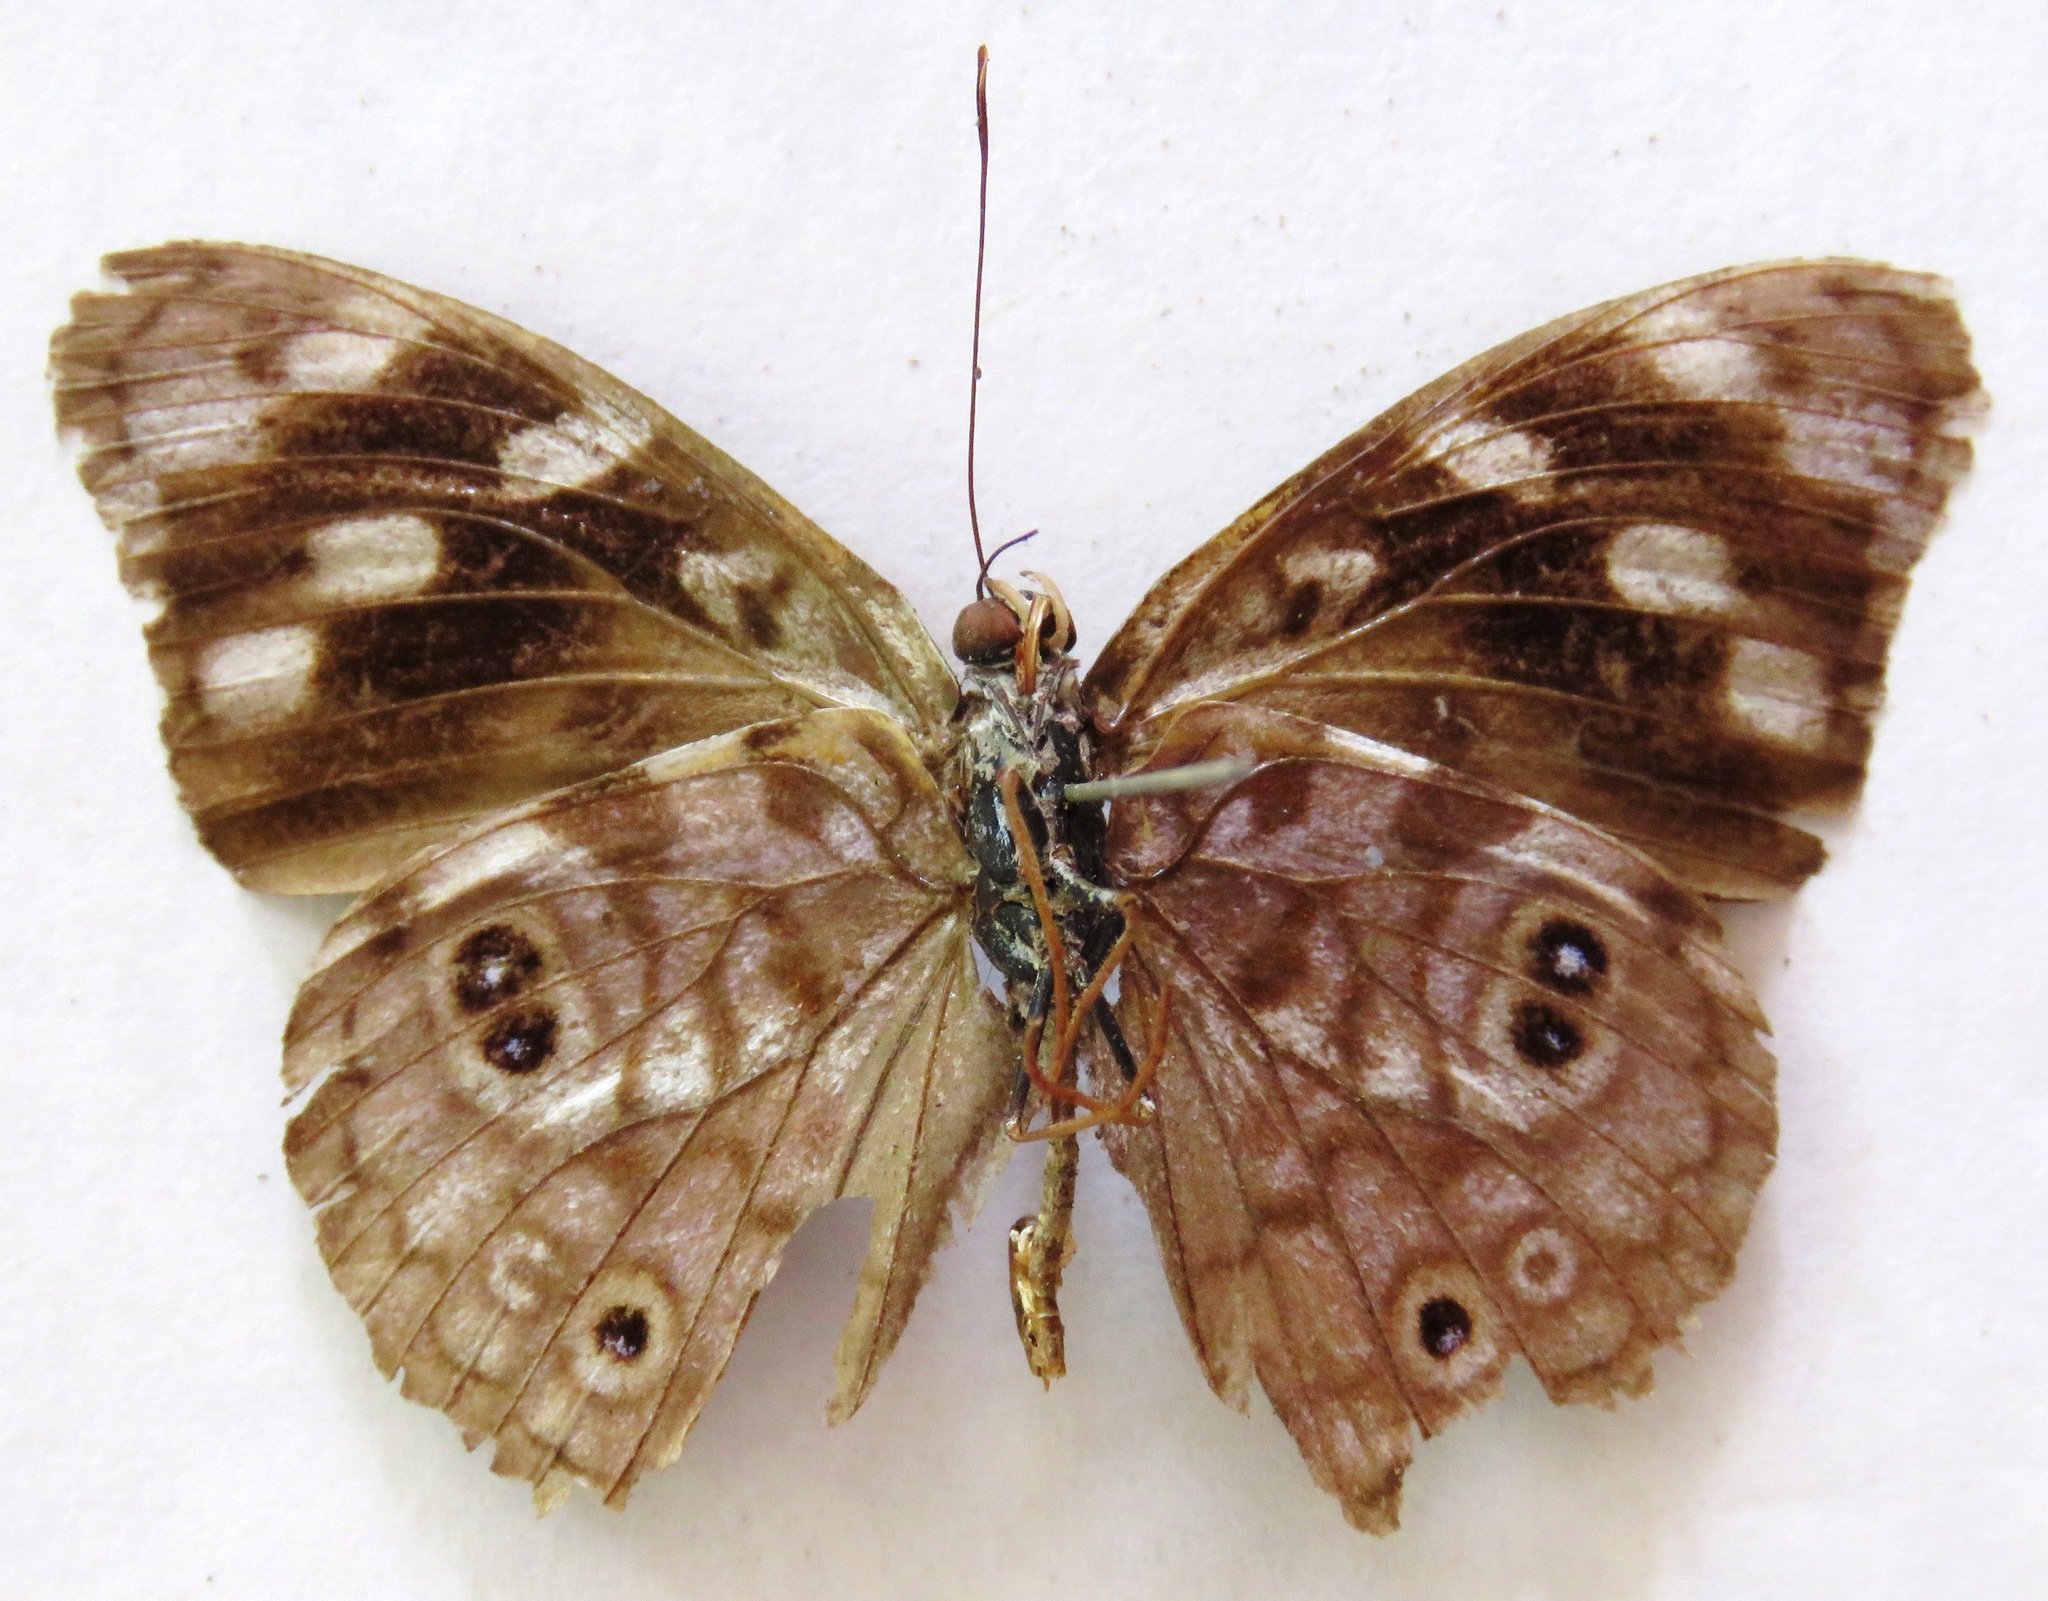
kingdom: Animalia
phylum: Arthropoda
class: Insecta
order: Lepidoptera
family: Nymphalidae
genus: Eunica
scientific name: Eunica malvina
